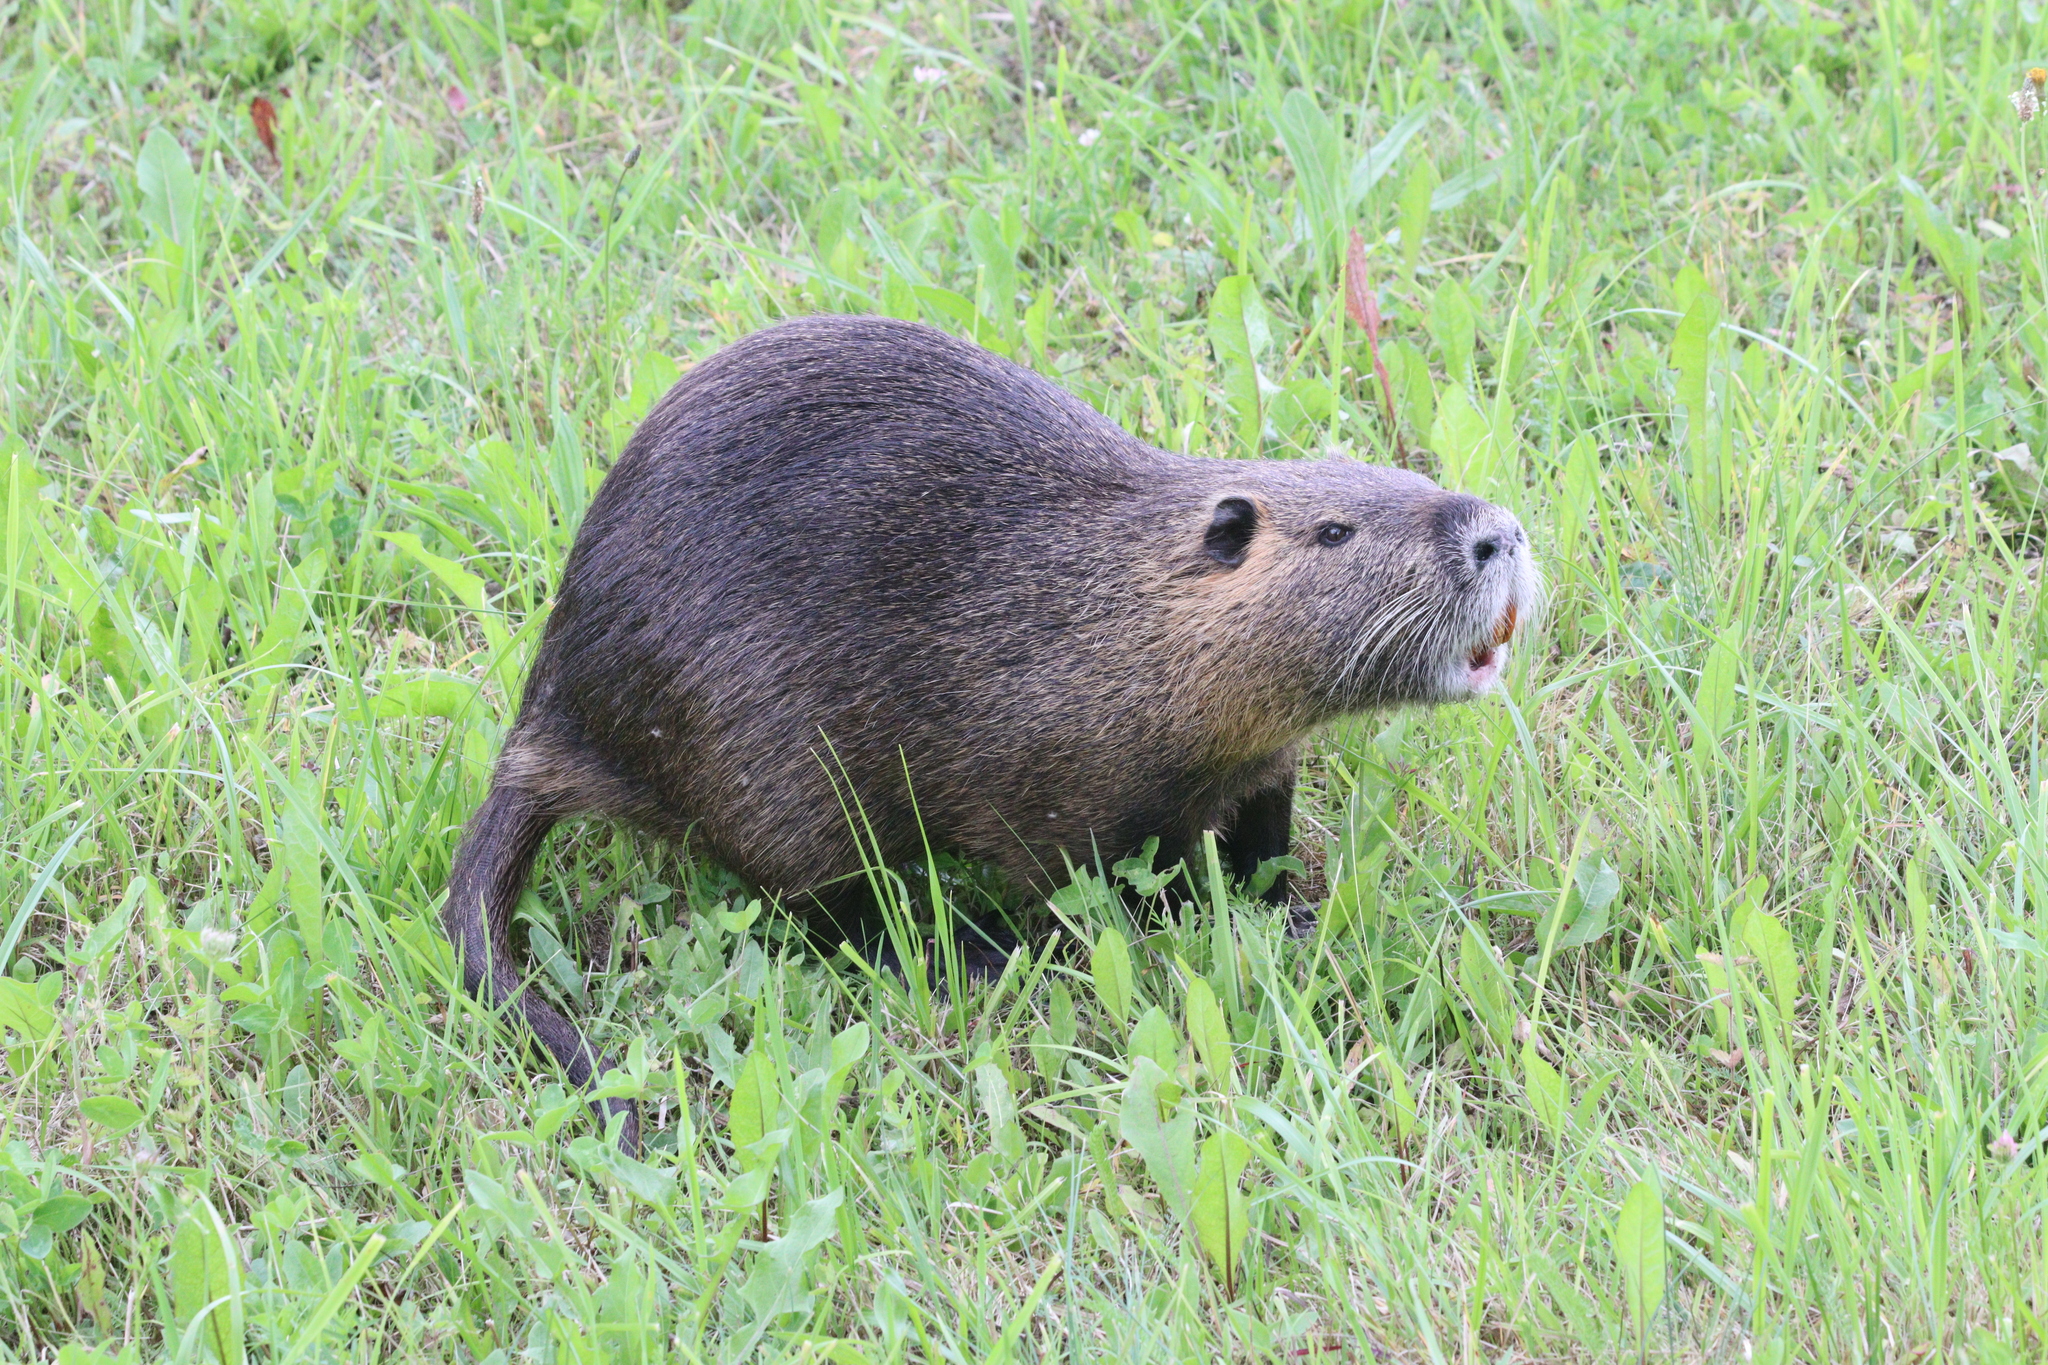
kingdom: Animalia
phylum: Chordata
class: Mammalia
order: Rodentia
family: Myocastoridae
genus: Myocastor
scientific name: Myocastor coypus
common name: Coypu
